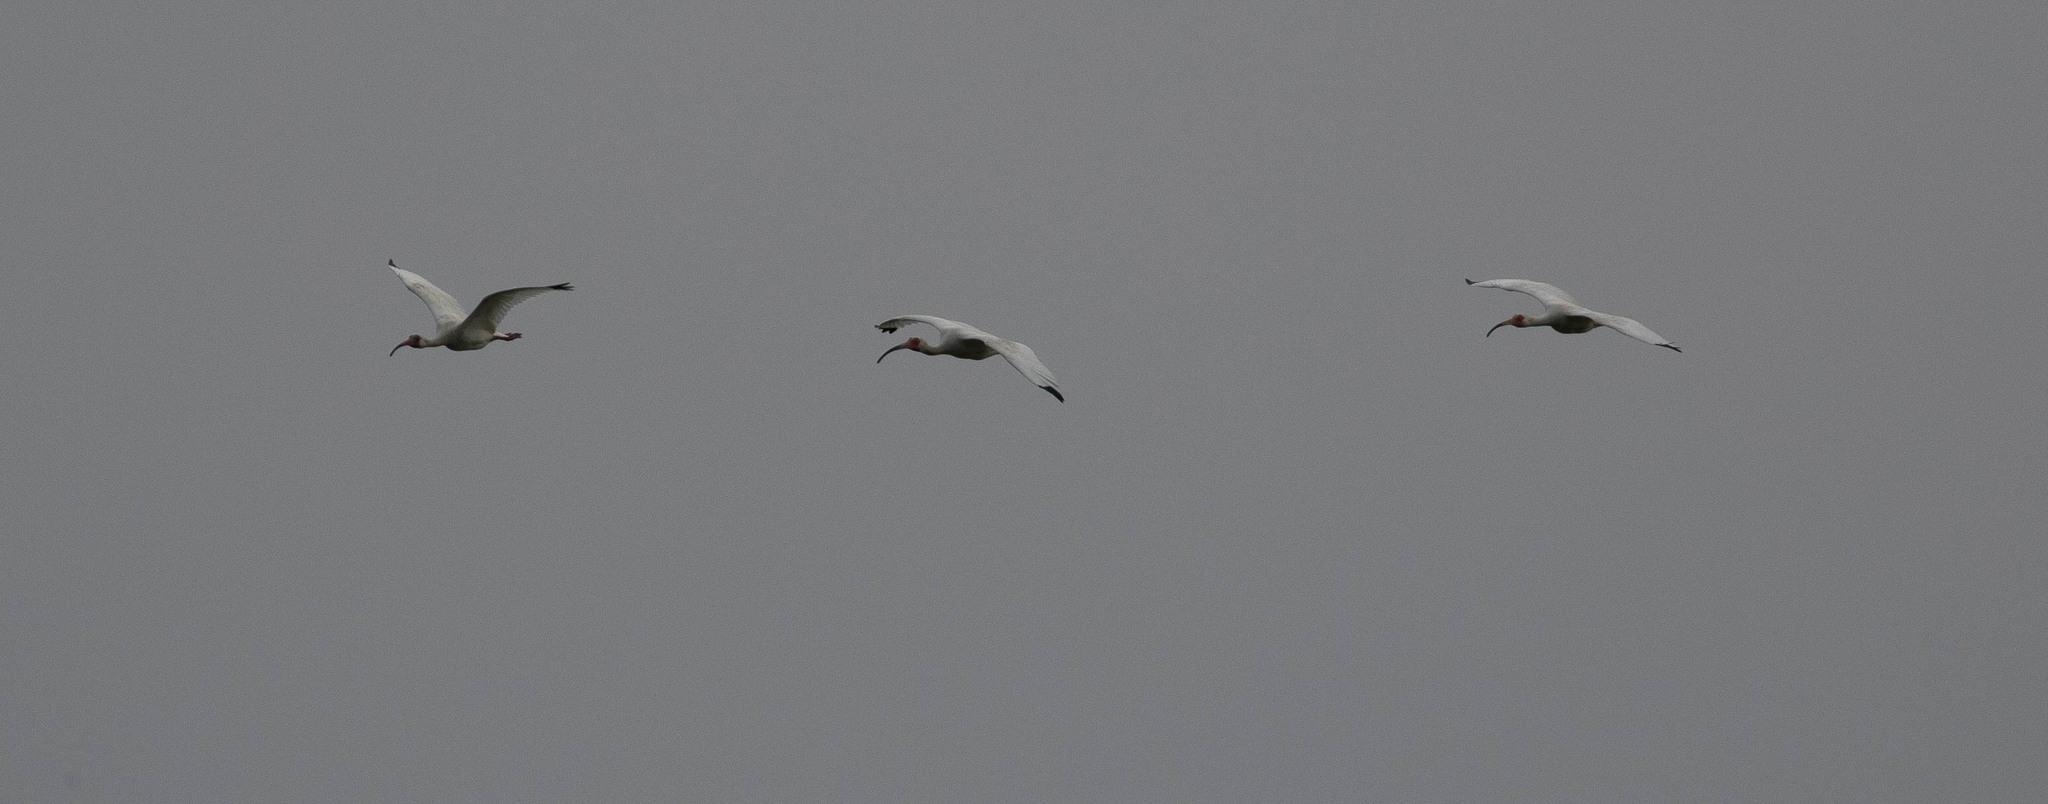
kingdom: Animalia
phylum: Chordata
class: Aves
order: Pelecaniformes
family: Threskiornithidae
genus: Eudocimus
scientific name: Eudocimus albus
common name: White ibis
